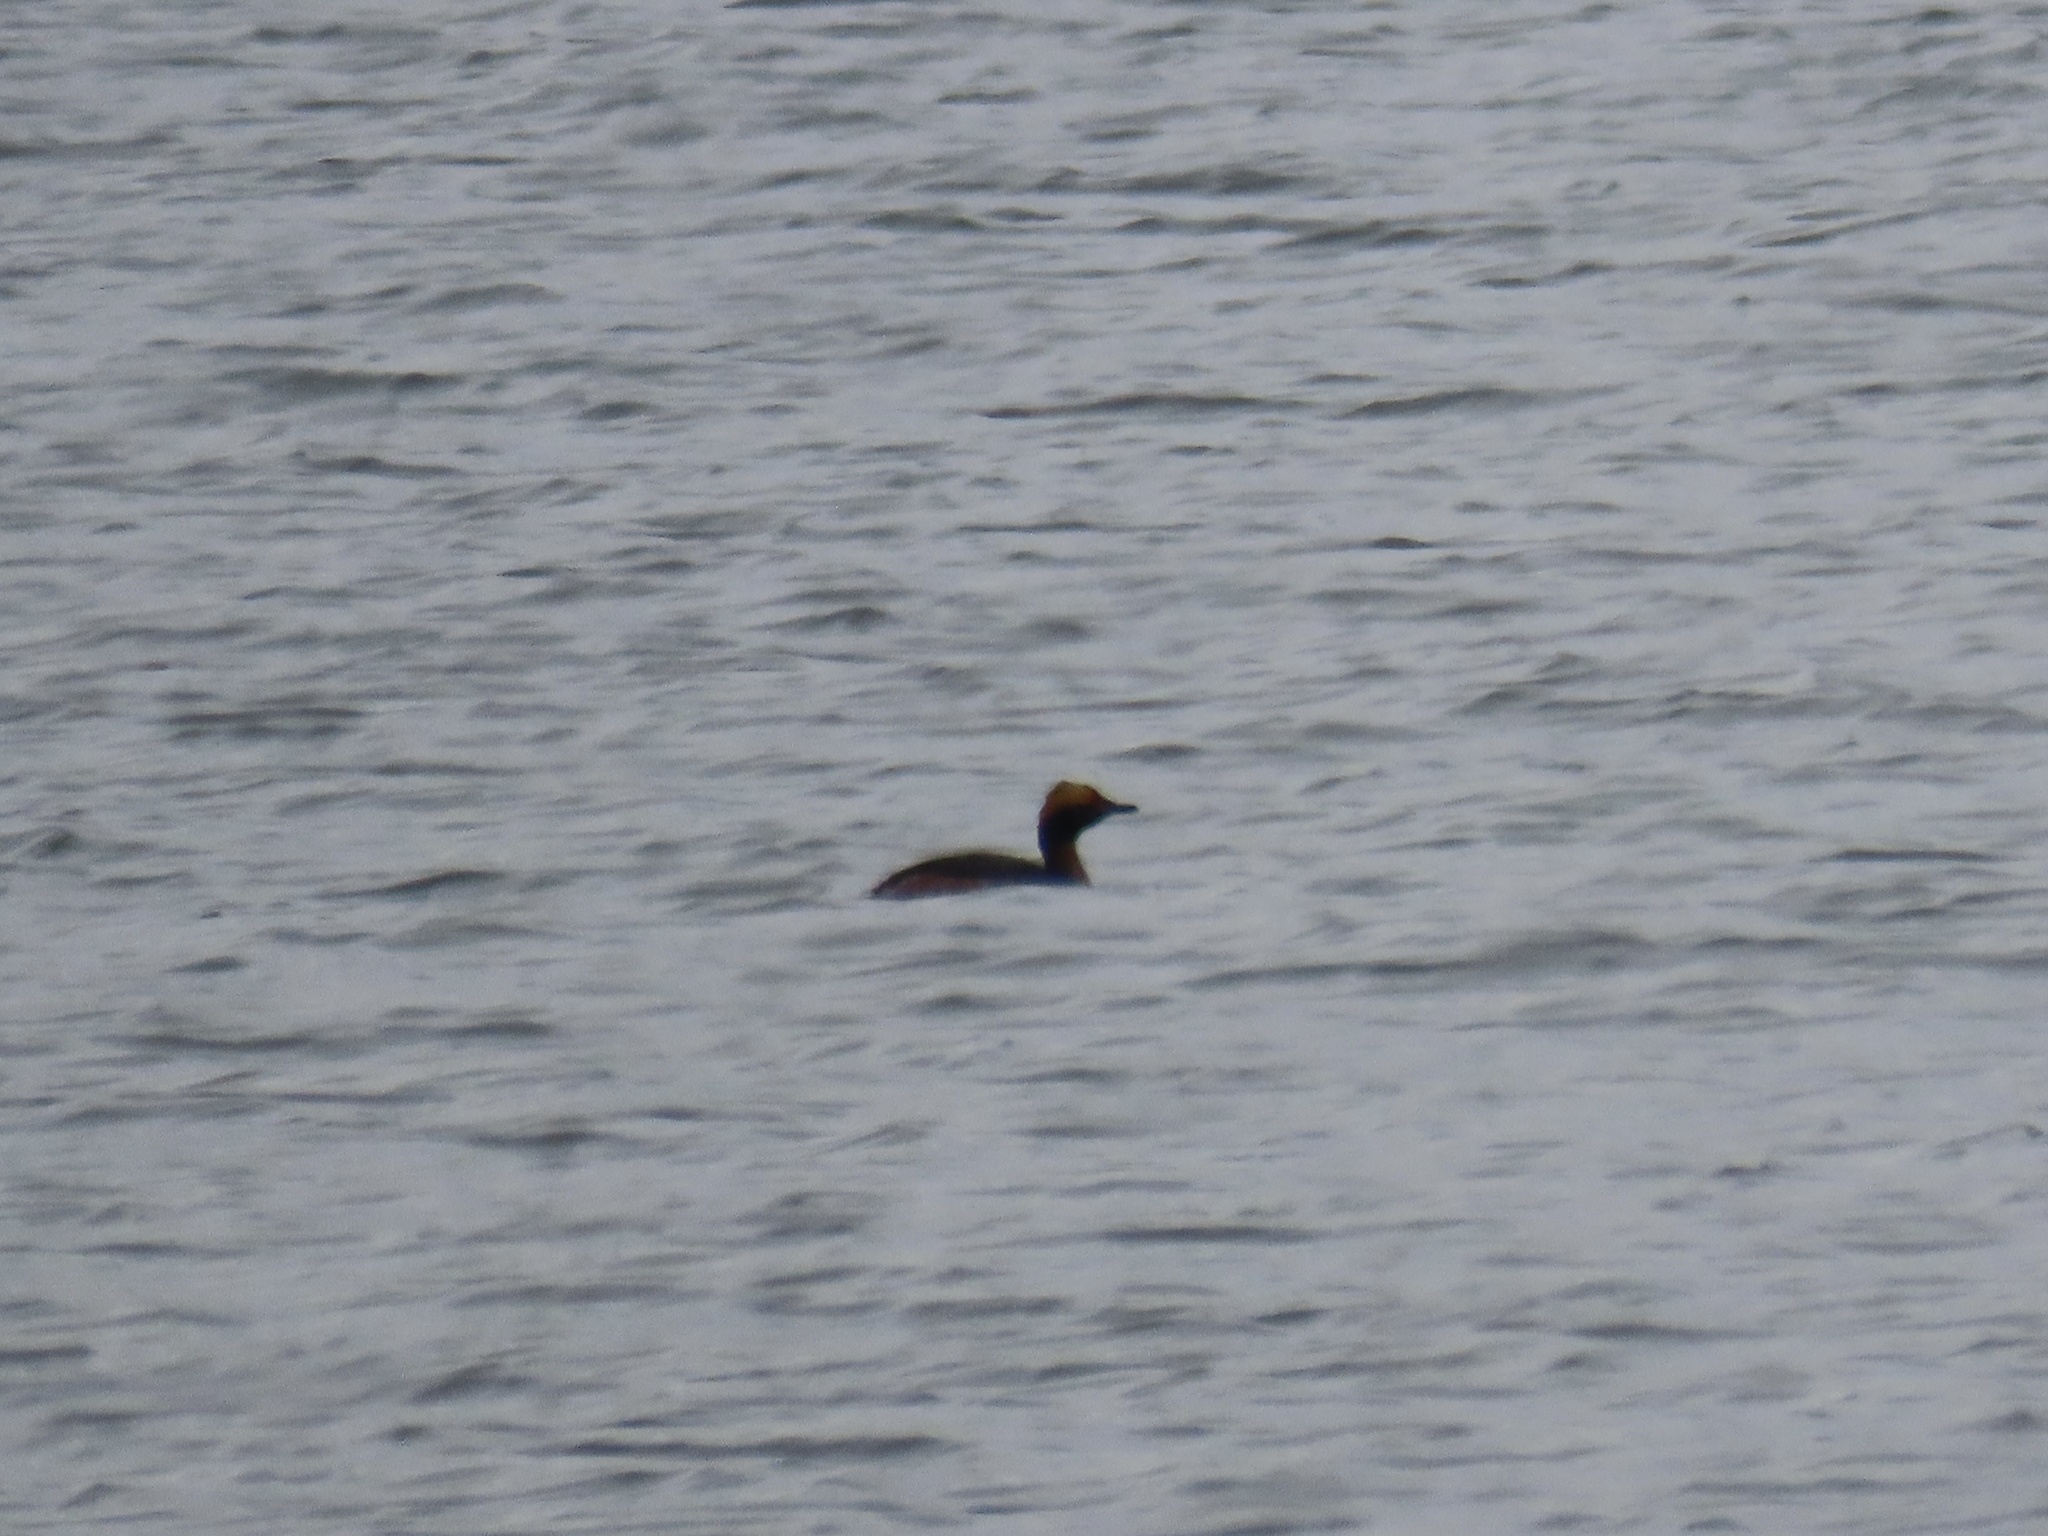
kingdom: Animalia
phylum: Chordata
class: Aves
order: Podicipediformes
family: Podicipedidae
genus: Podiceps
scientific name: Podiceps auritus
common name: Horned grebe
